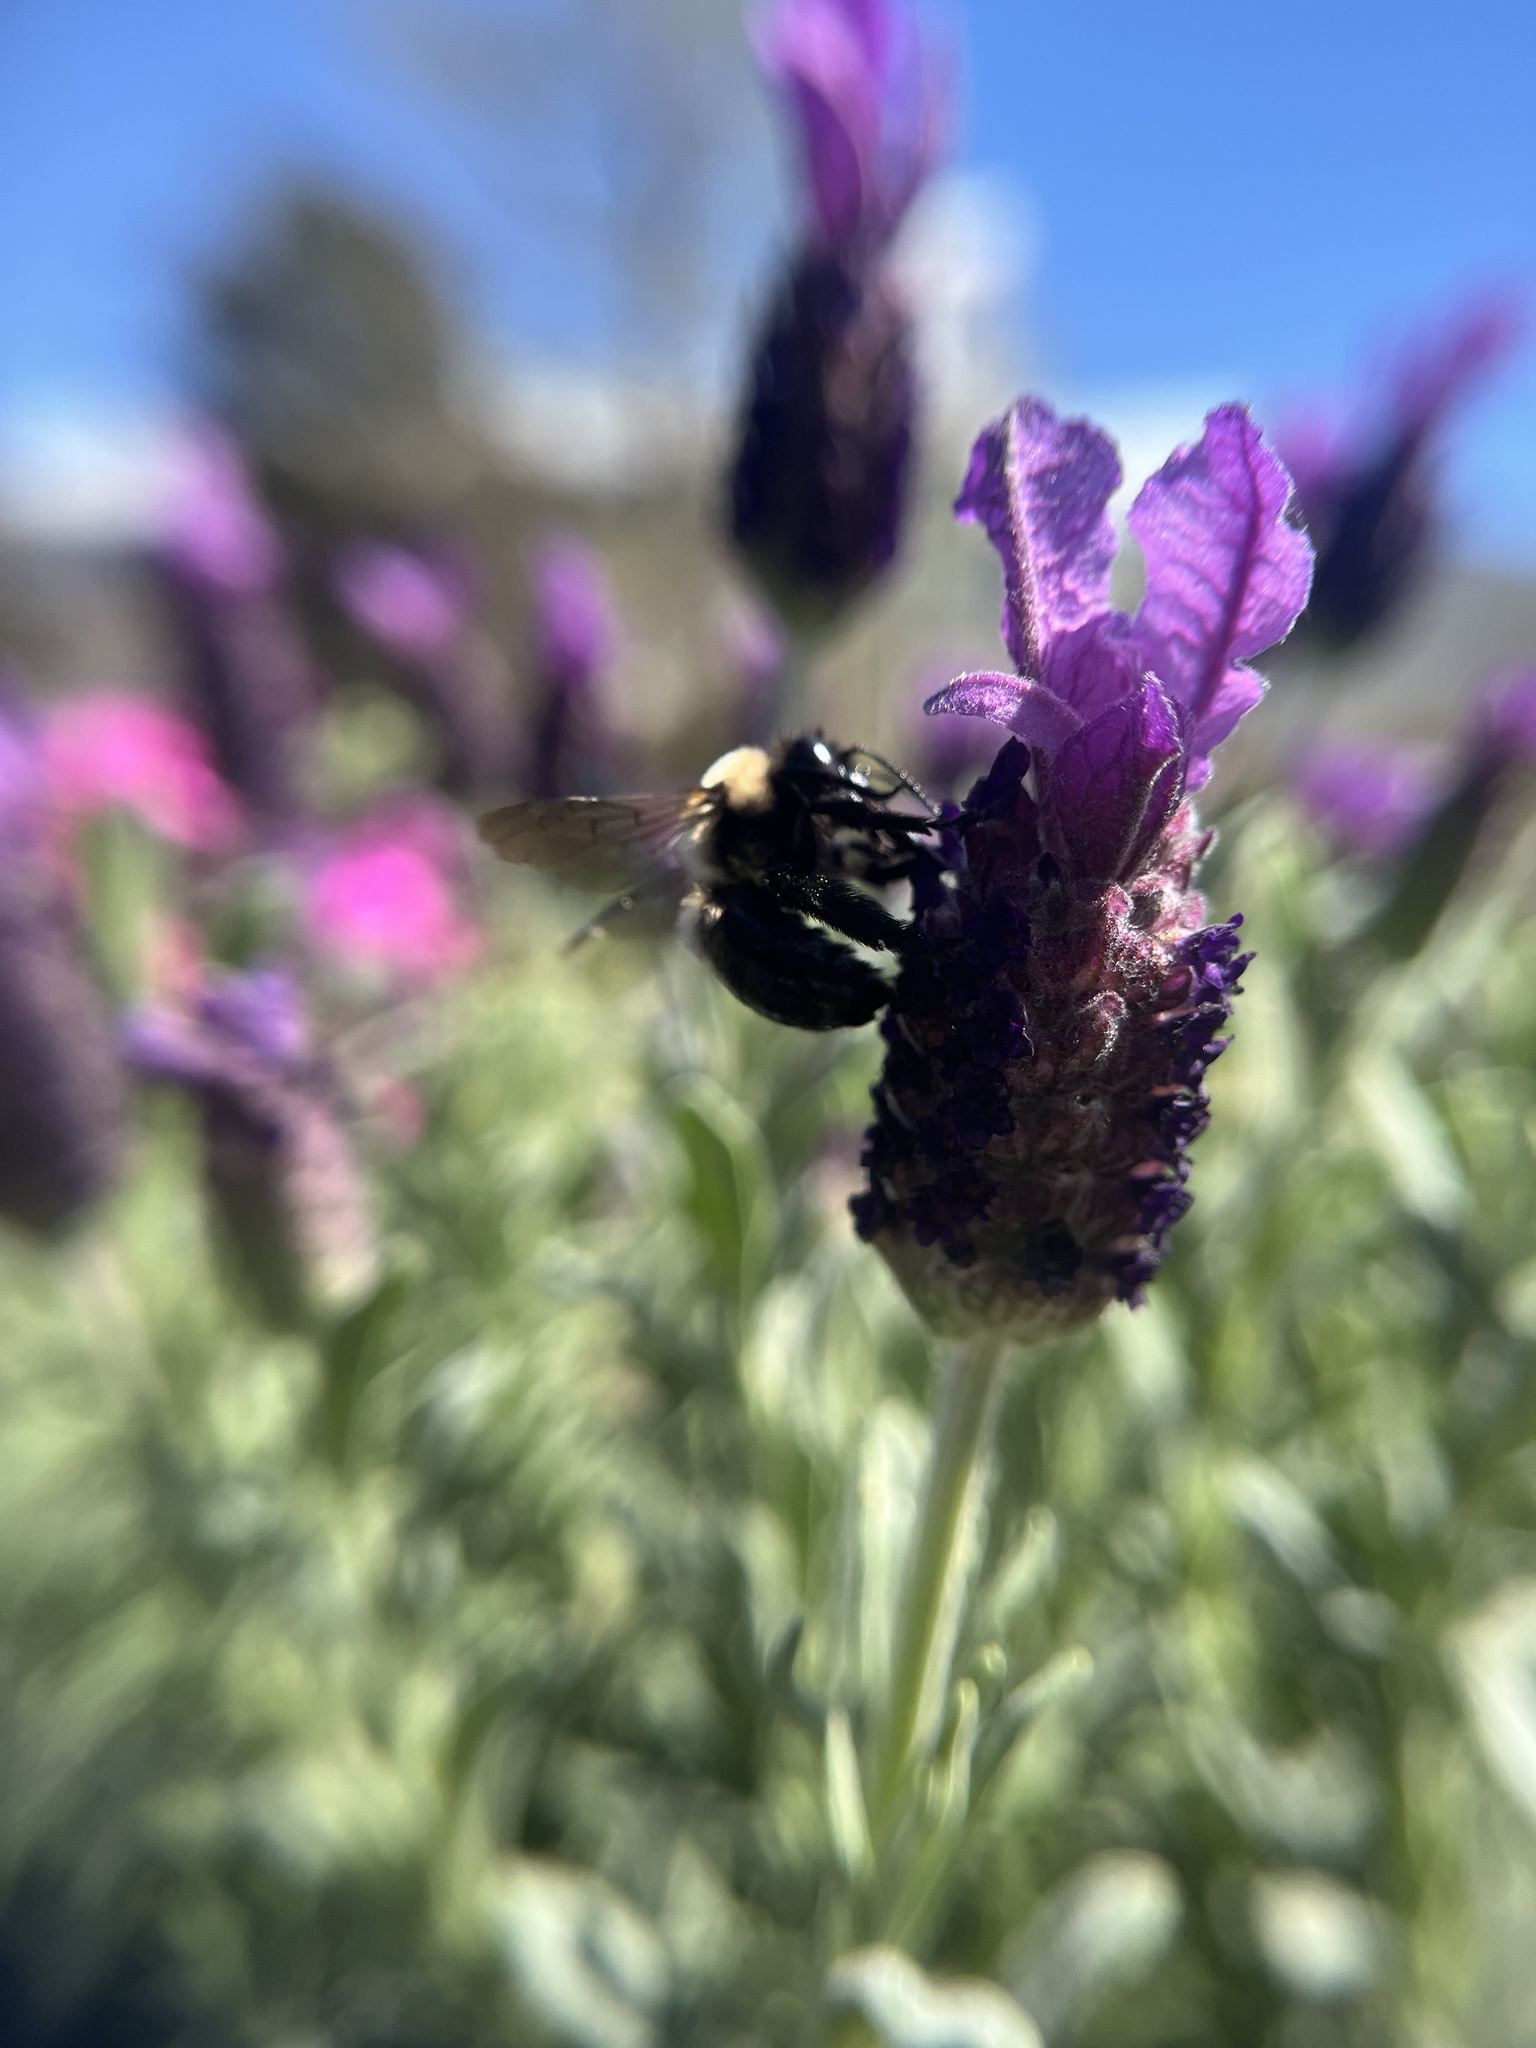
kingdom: Animalia
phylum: Arthropoda
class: Insecta
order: Hymenoptera
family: Apidae
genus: Habropoda
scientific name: Habropoda laboriosa
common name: Southeastern blueberry bee
